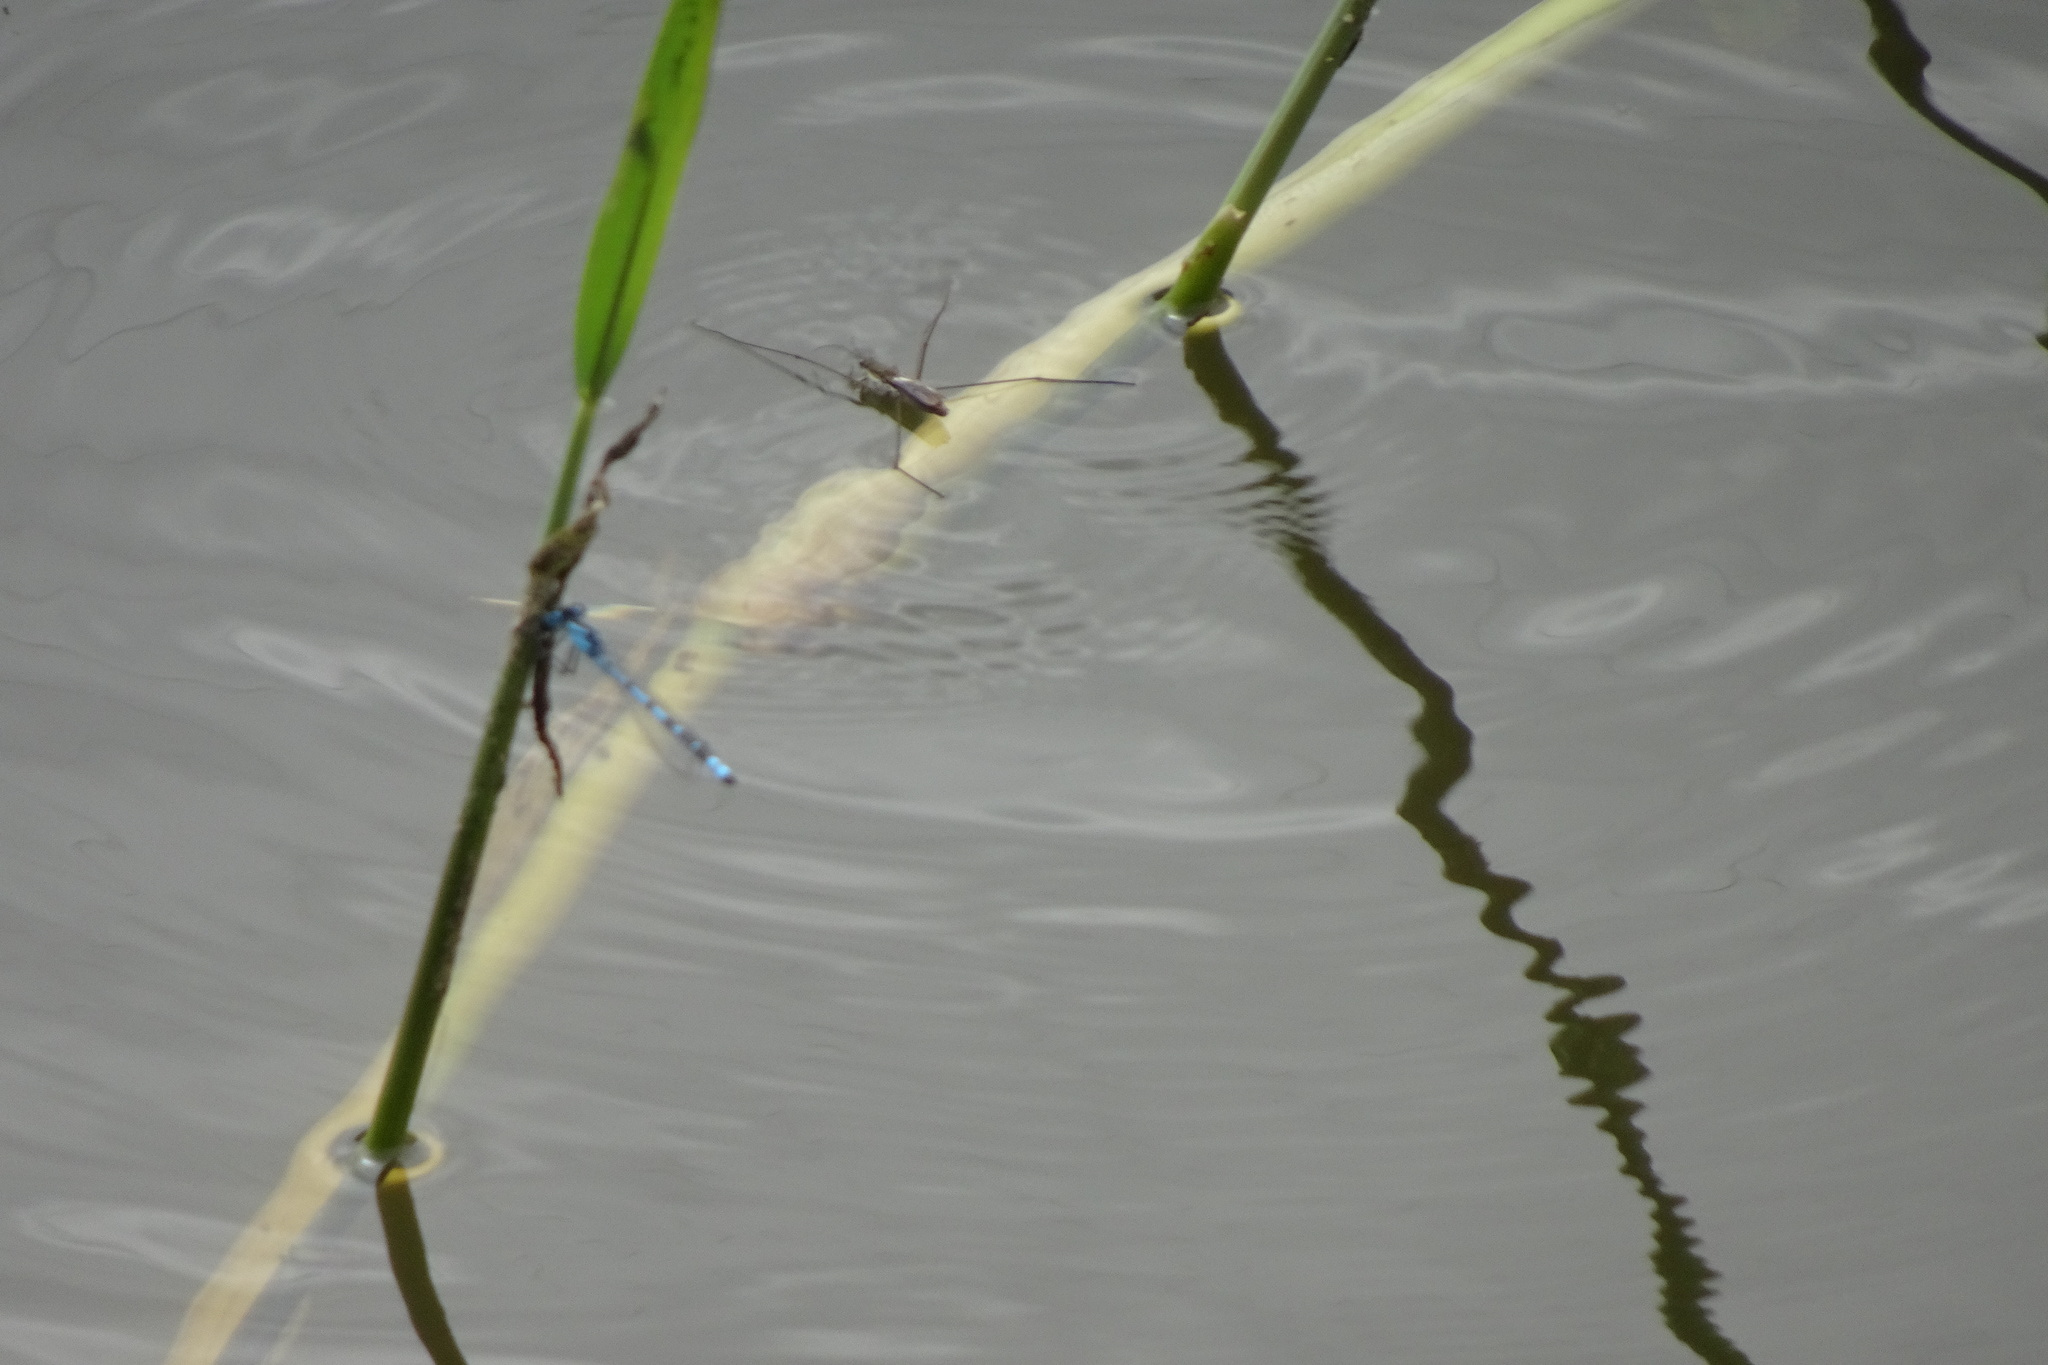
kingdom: Animalia
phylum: Arthropoda
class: Insecta
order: Hemiptera
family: Gerridae
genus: Aquarius
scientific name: Aquarius paludum
